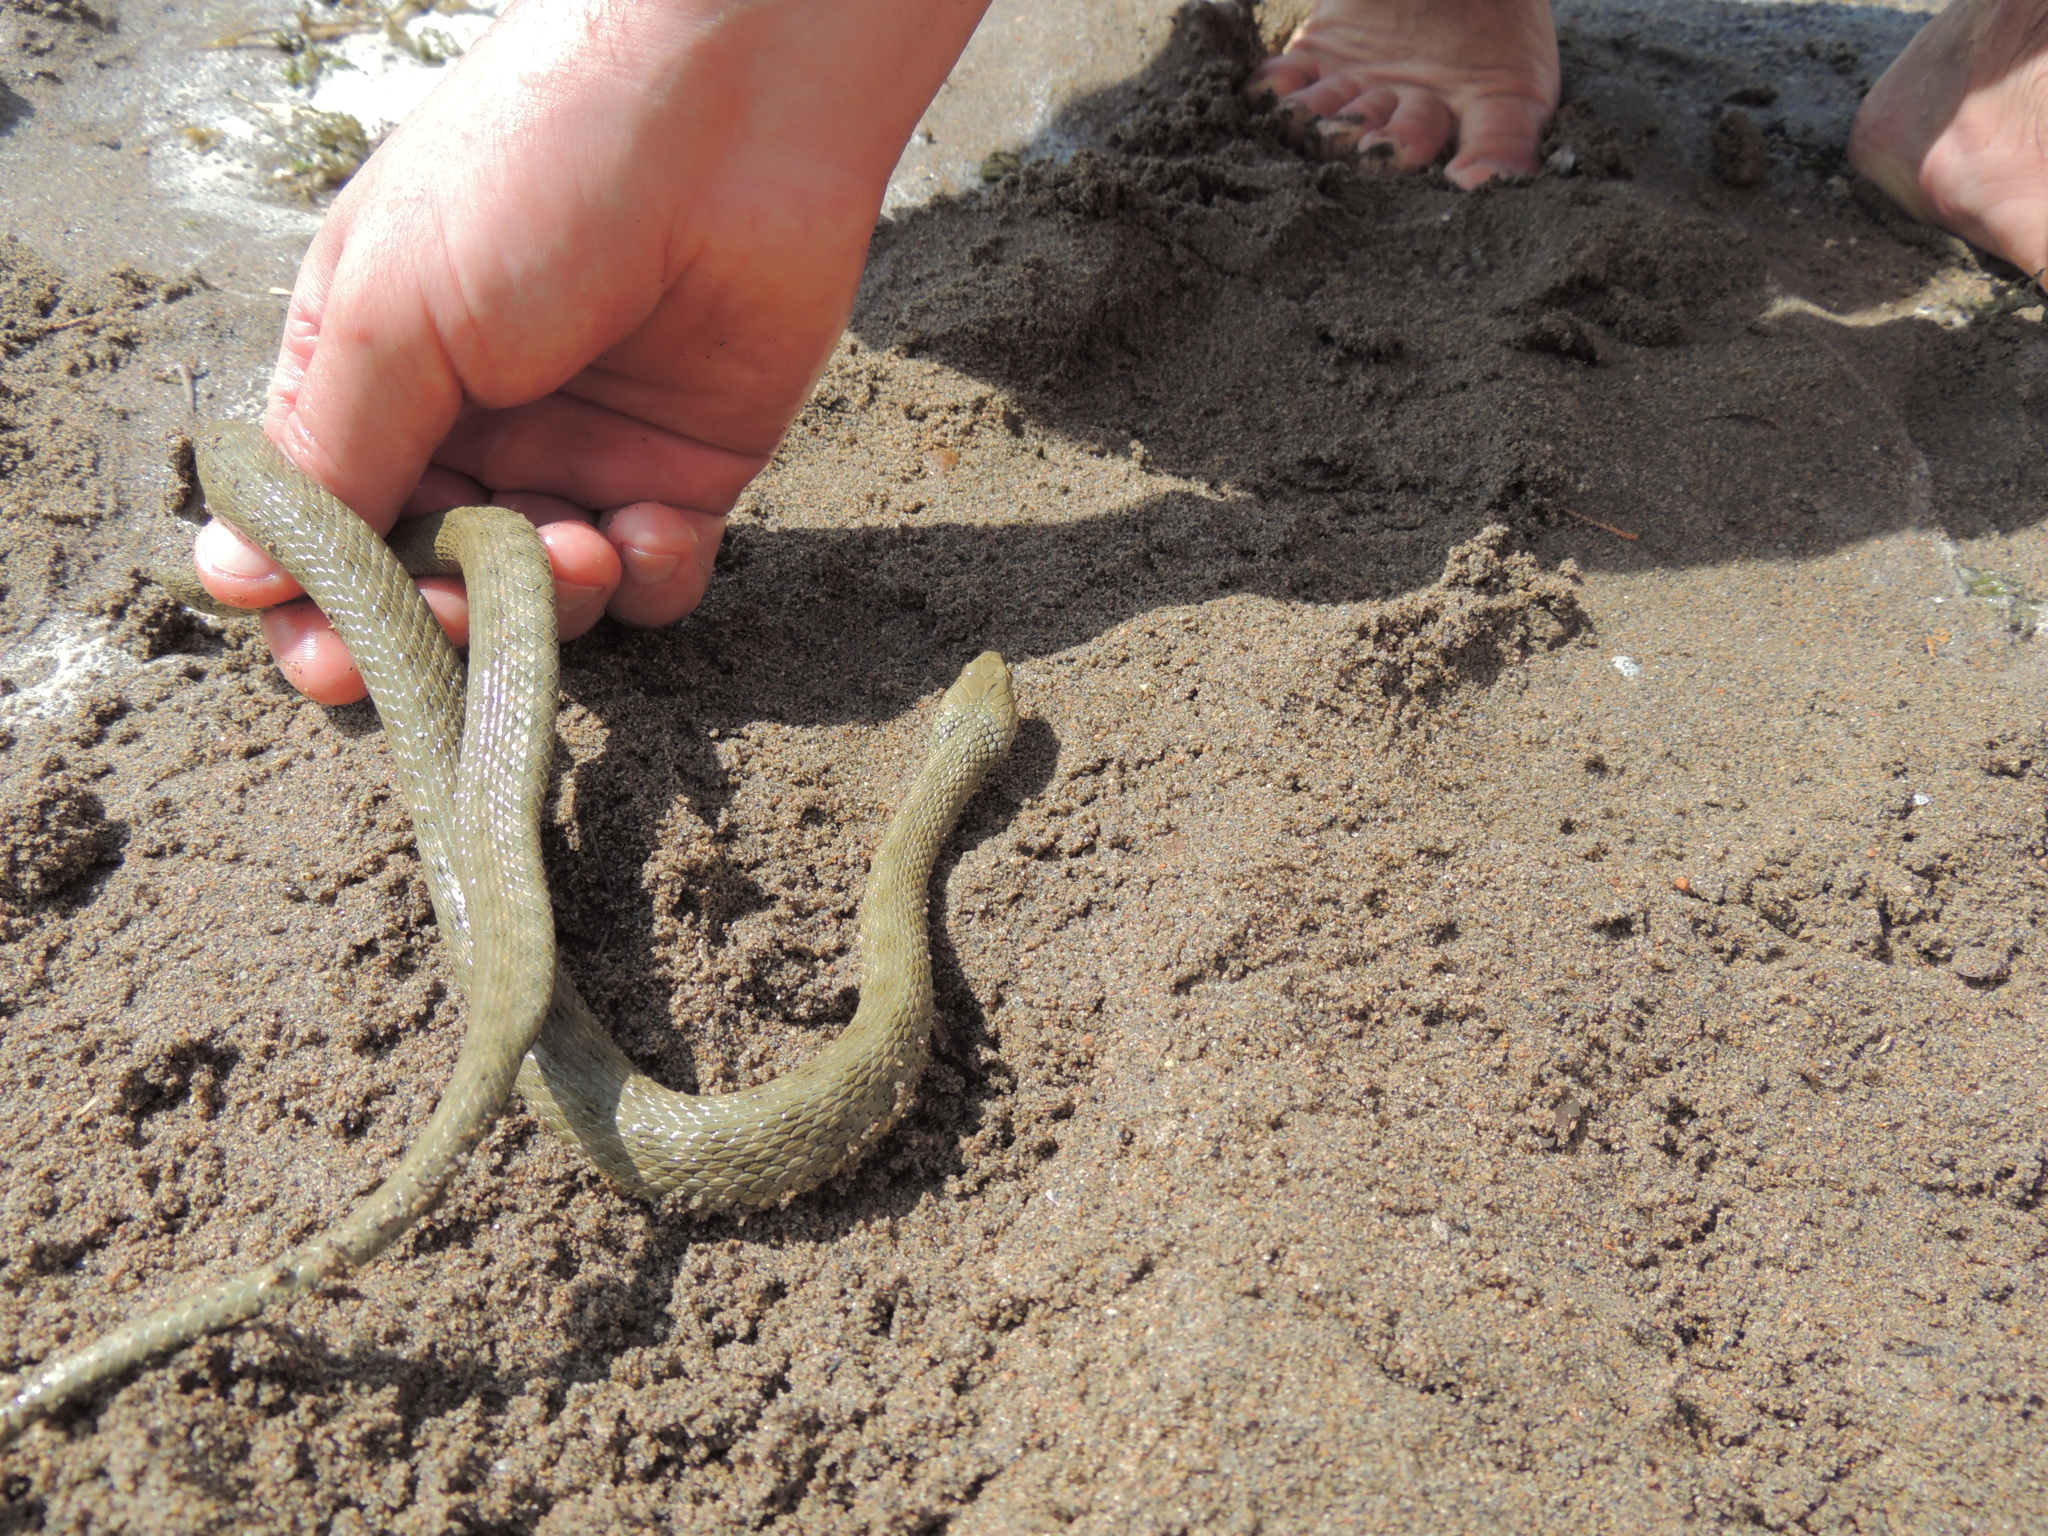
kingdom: Animalia
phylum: Chordata
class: Squamata
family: Colubridae
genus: Natrix
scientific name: Natrix tessellata
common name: Dice snake
